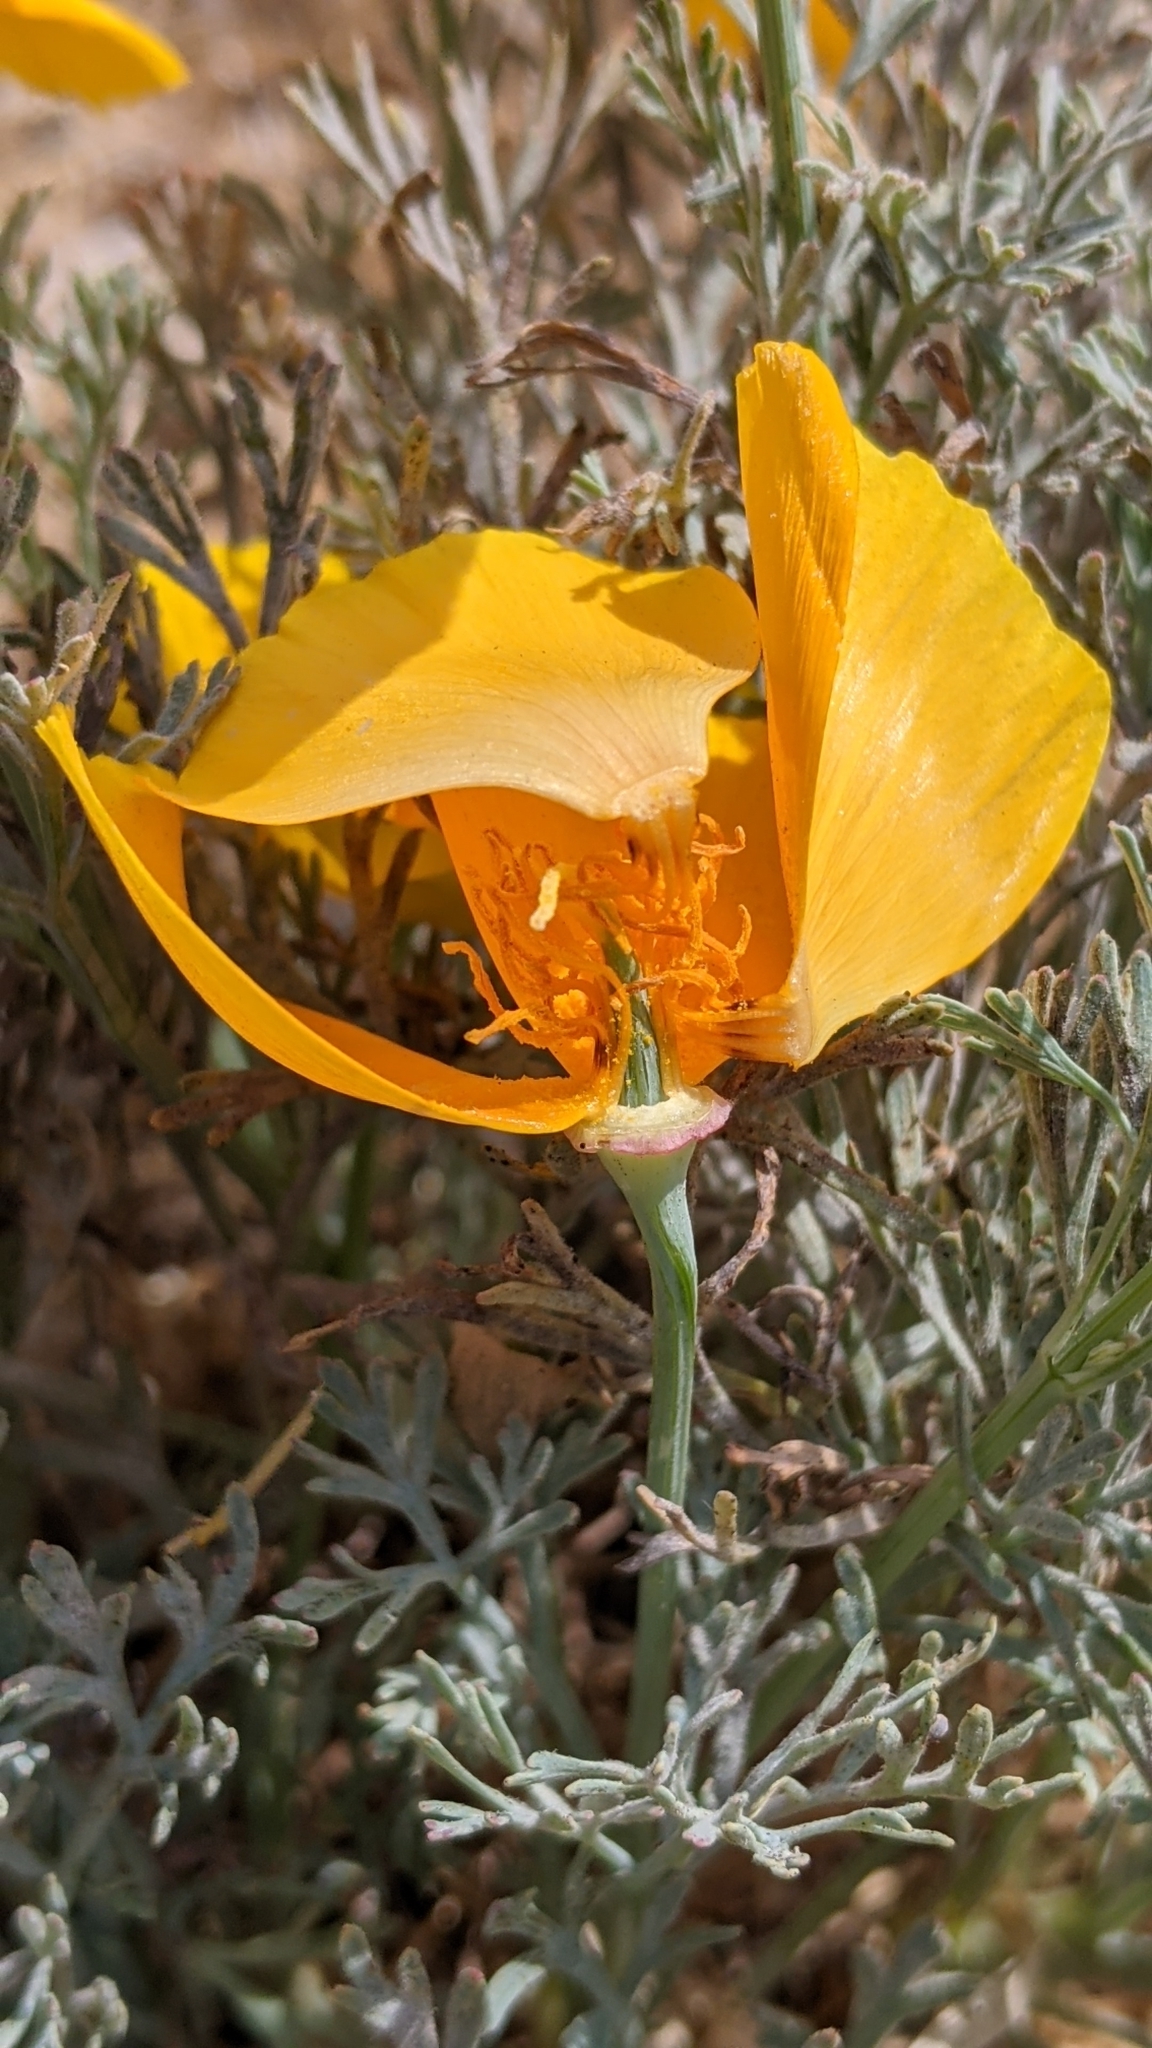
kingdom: Plantae
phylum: Tracheophyta
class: Magnoliopsida
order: Ranunculales
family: Papaveraceae
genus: Eschscholzia
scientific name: Eschscholzia californica
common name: California poppy
